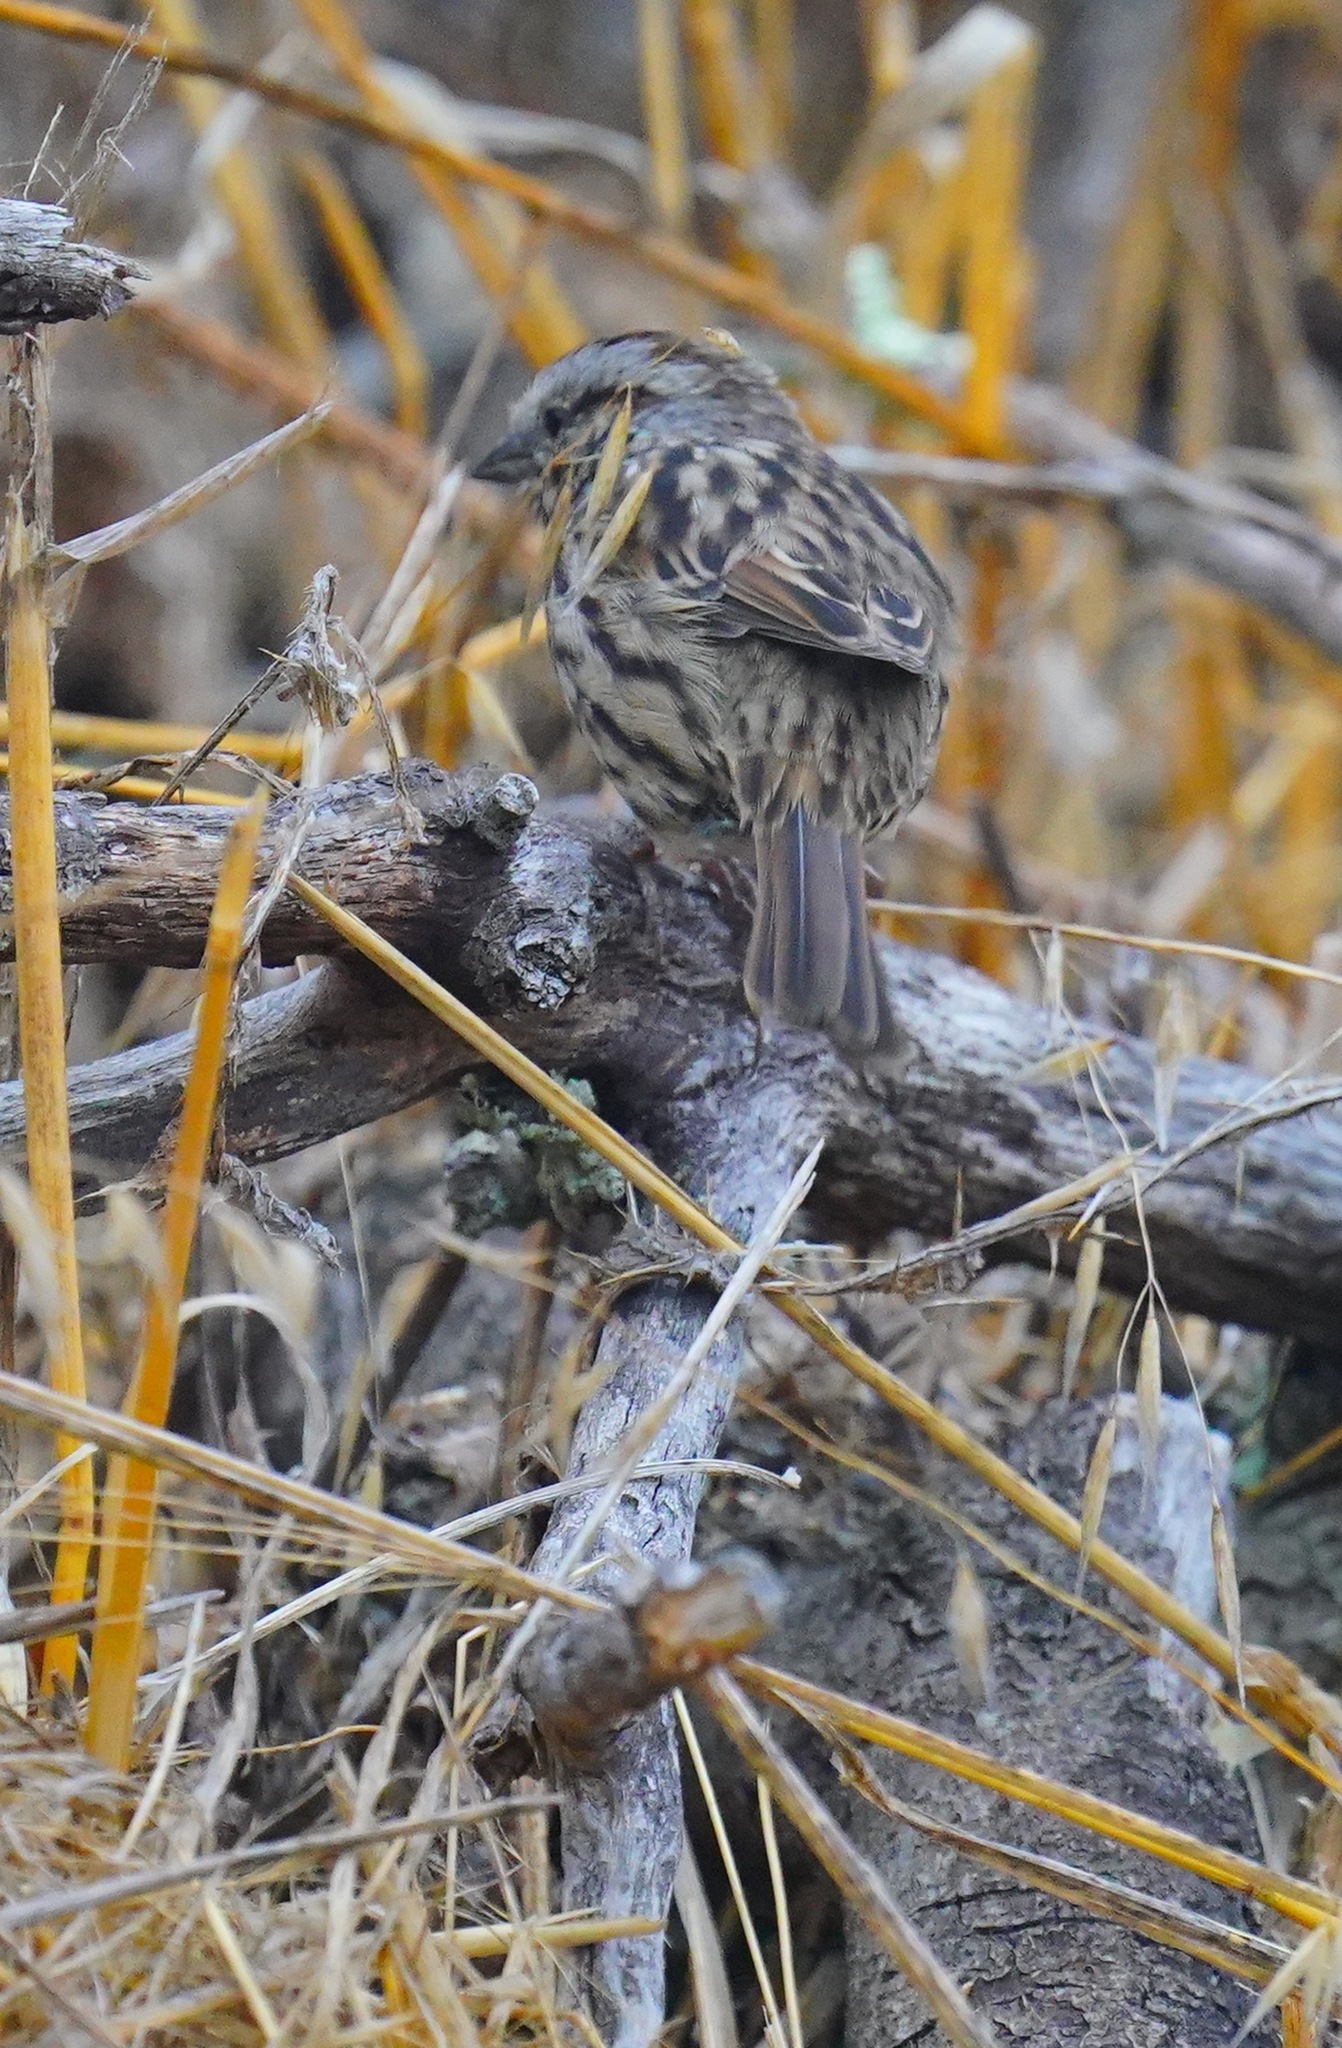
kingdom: Animalia
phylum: Chordata
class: Aves
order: Passeriformes
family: Passerellidae
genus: Melospiza
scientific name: Melospiza melodia
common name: Song sparrow
